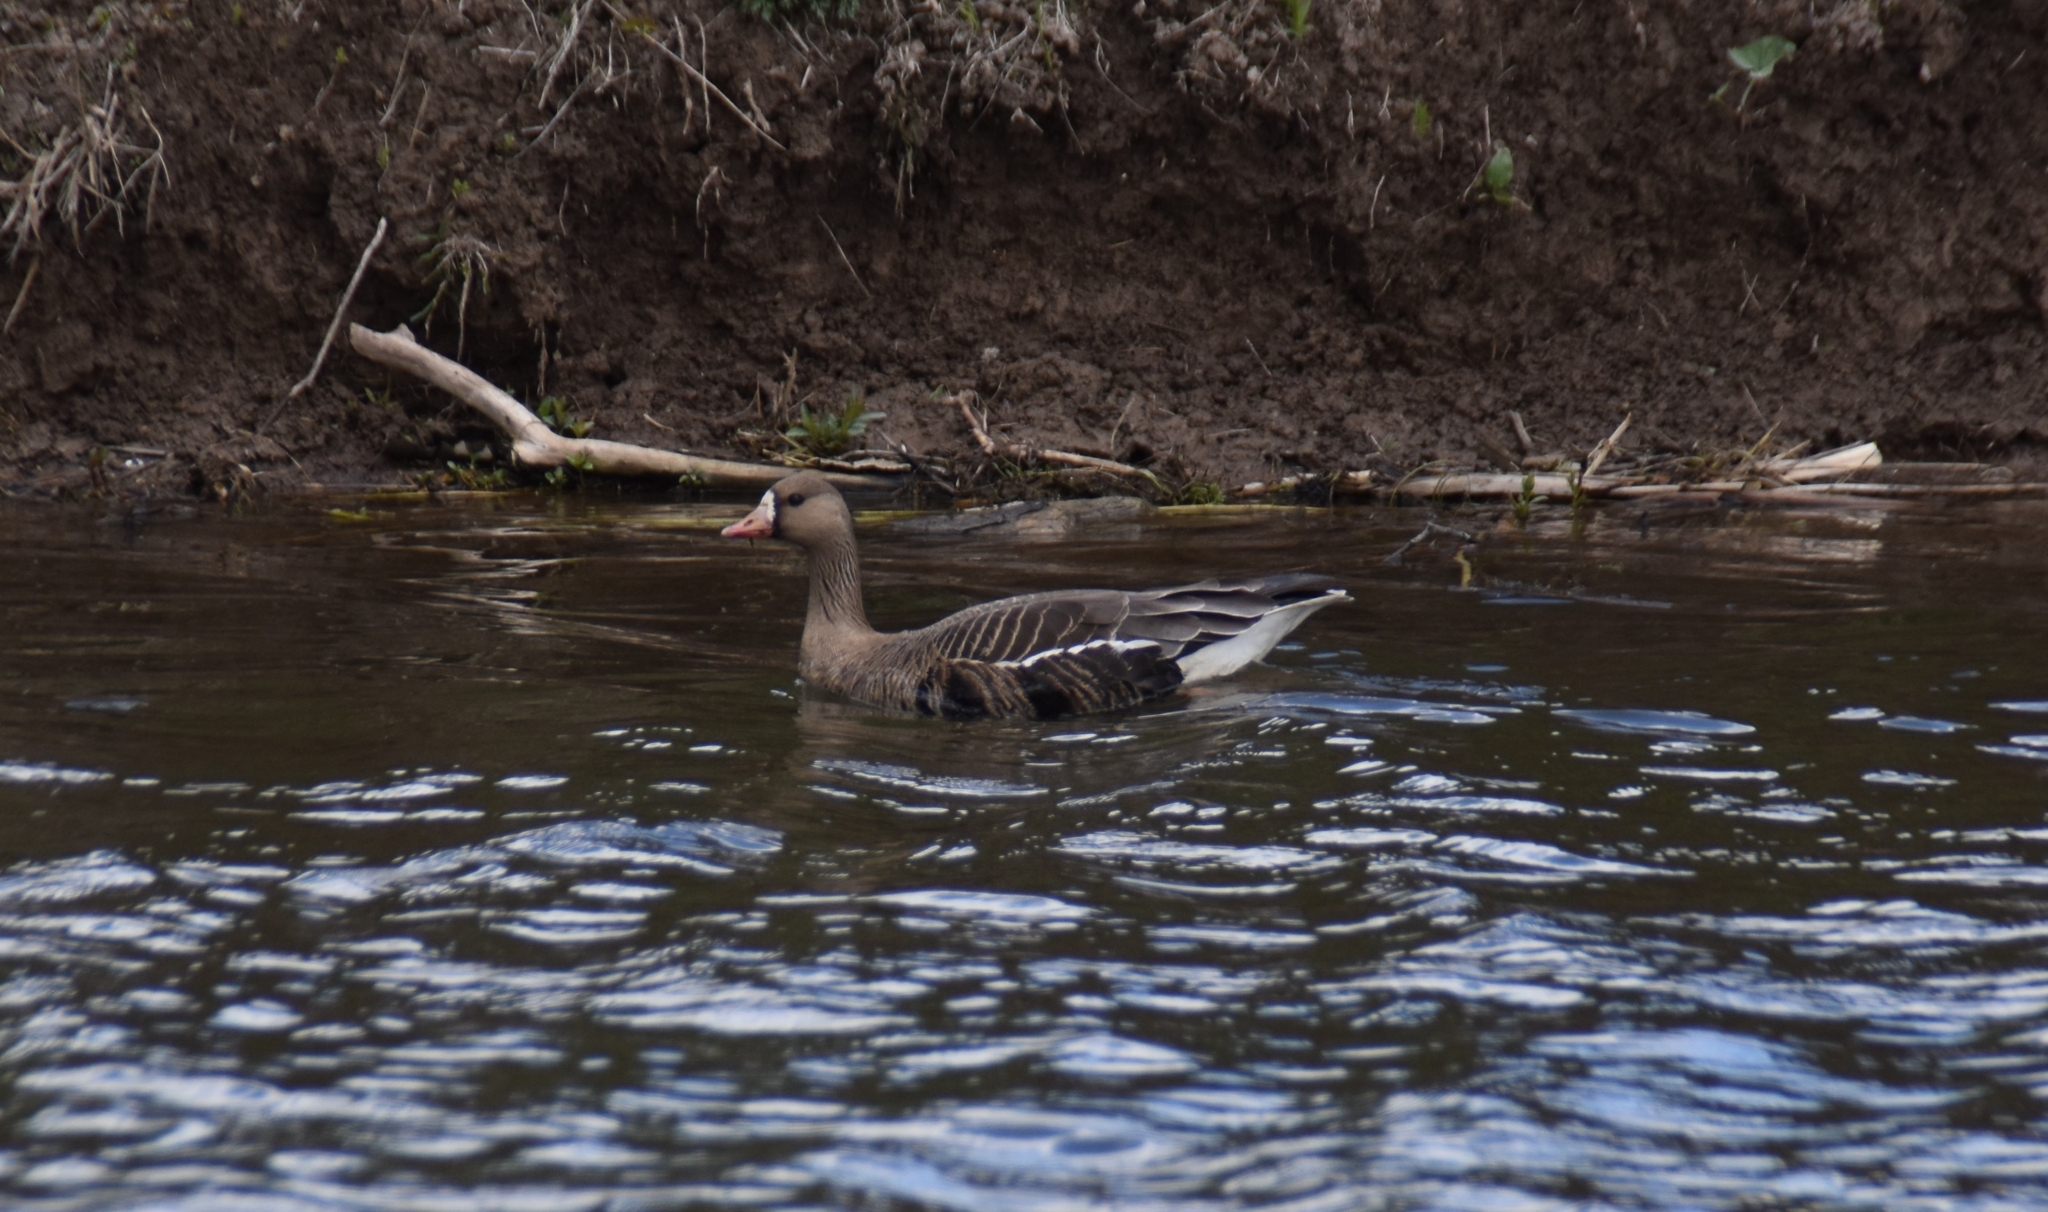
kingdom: Animalia
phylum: Chordata
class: Aves
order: Anseriformes
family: Anatidae
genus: Anser
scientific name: Anser albifrons
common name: Greater white-fronted goose
